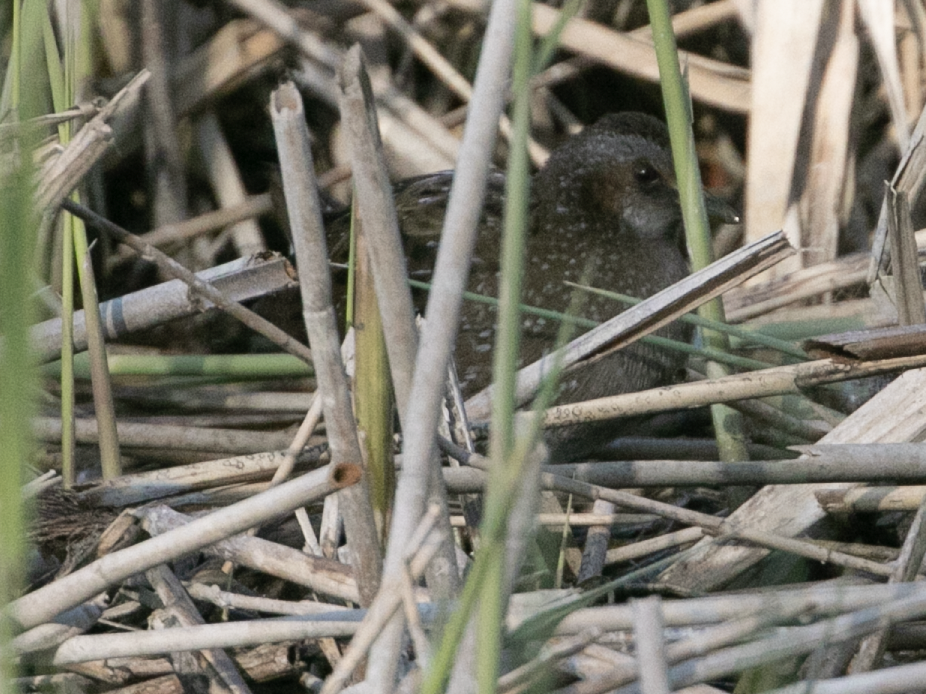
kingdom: Animalia
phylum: Chordata
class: Aves
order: Gruiformes
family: Rallidae
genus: Porzana
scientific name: Porzana porzana
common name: Spotted crake
